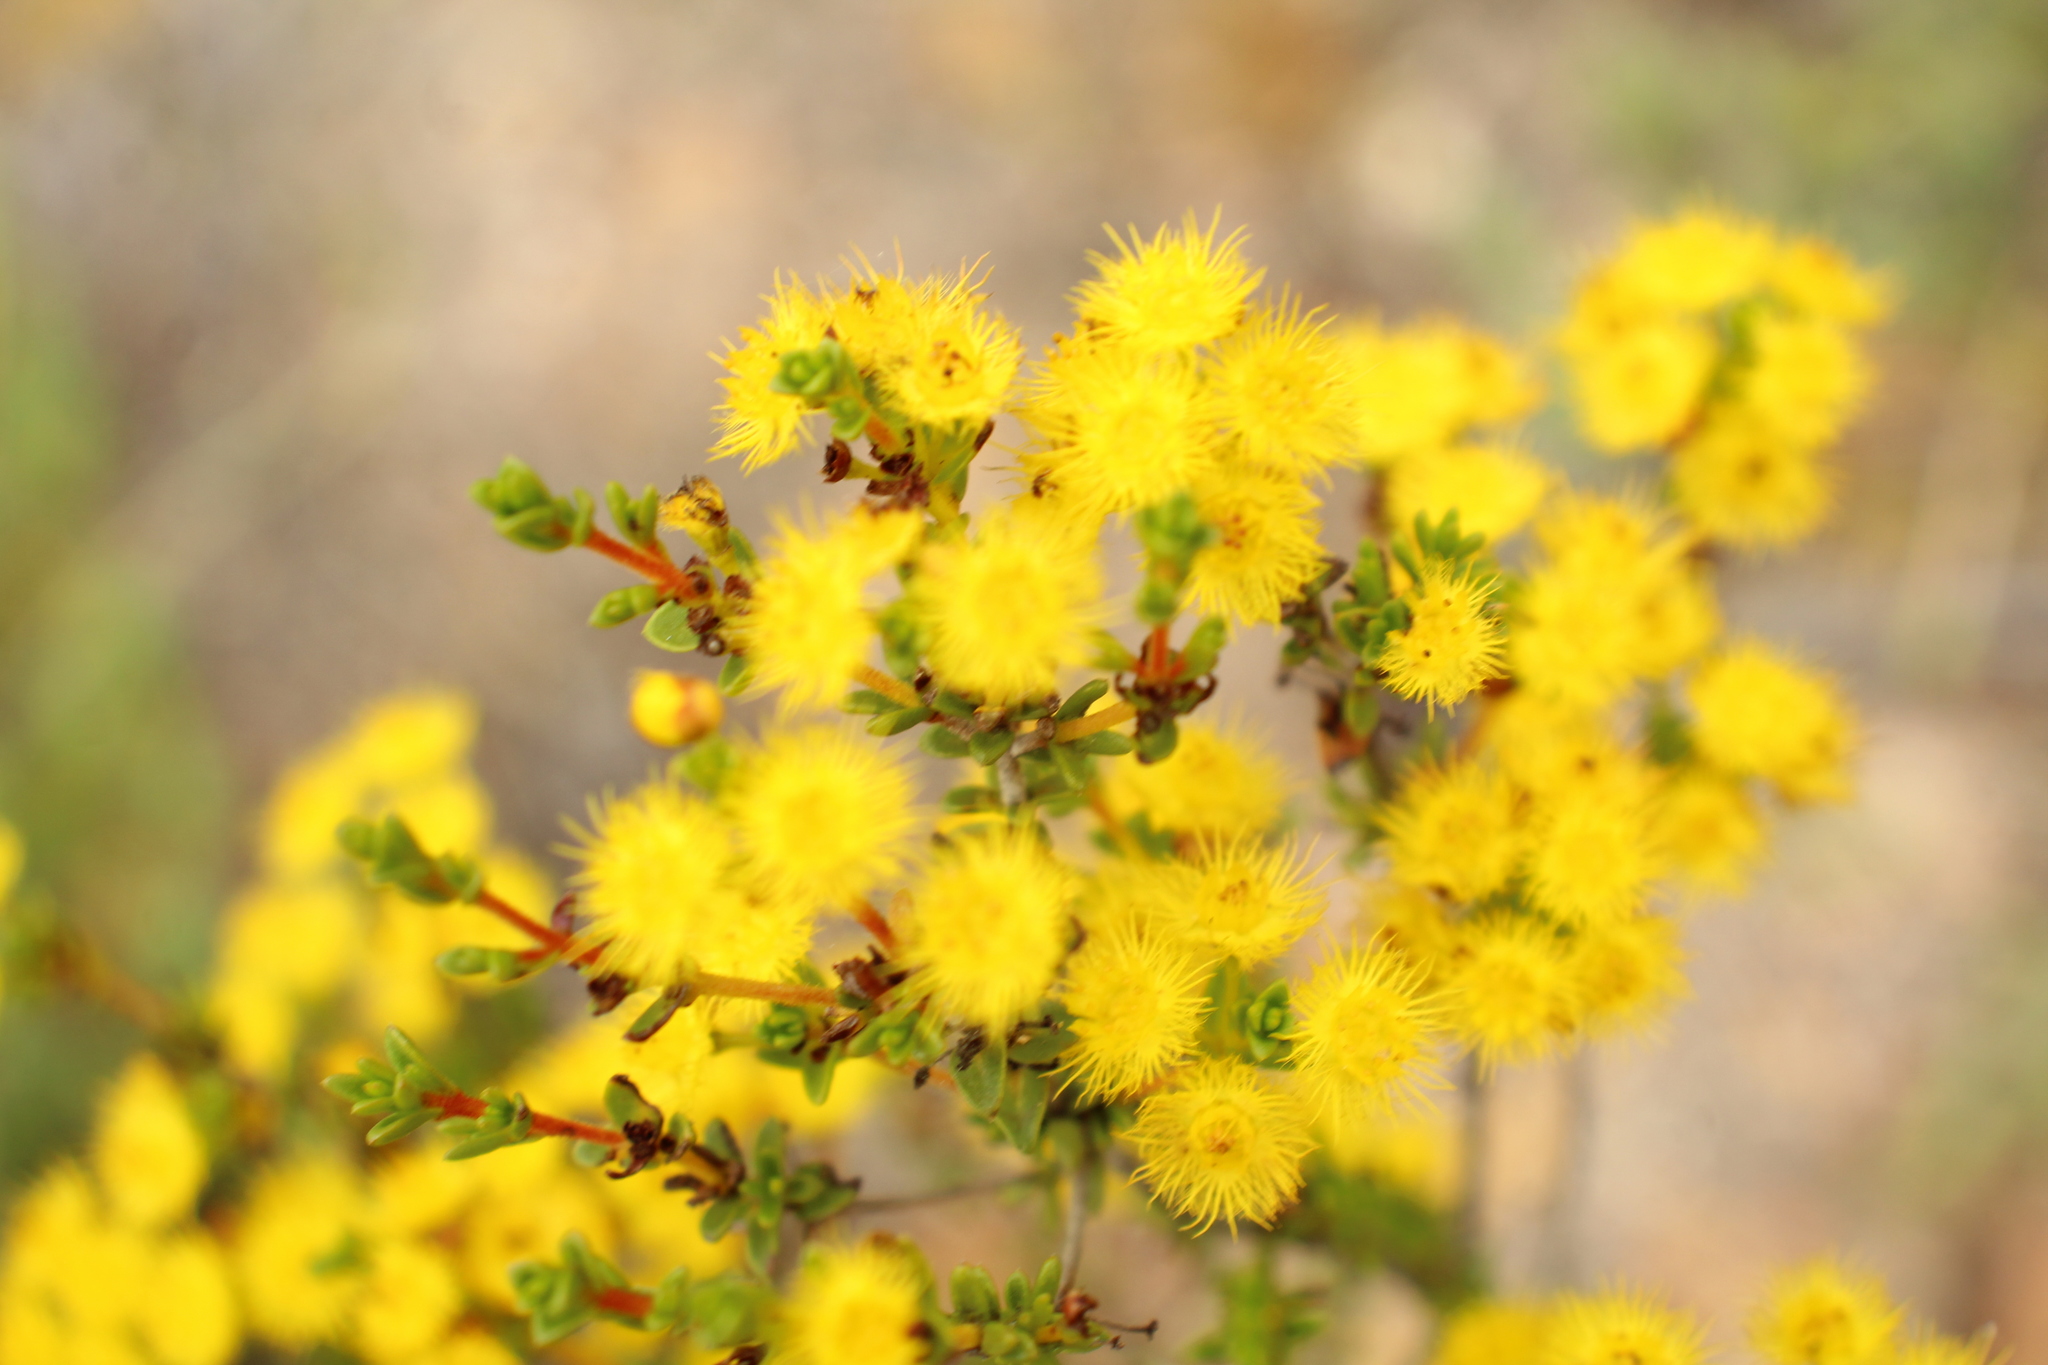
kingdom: Plantae
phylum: Tracheophyta
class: Magnoliopsida
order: Myrtales
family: Myrtaceae
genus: Verticordia
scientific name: Verticordia acerosa
